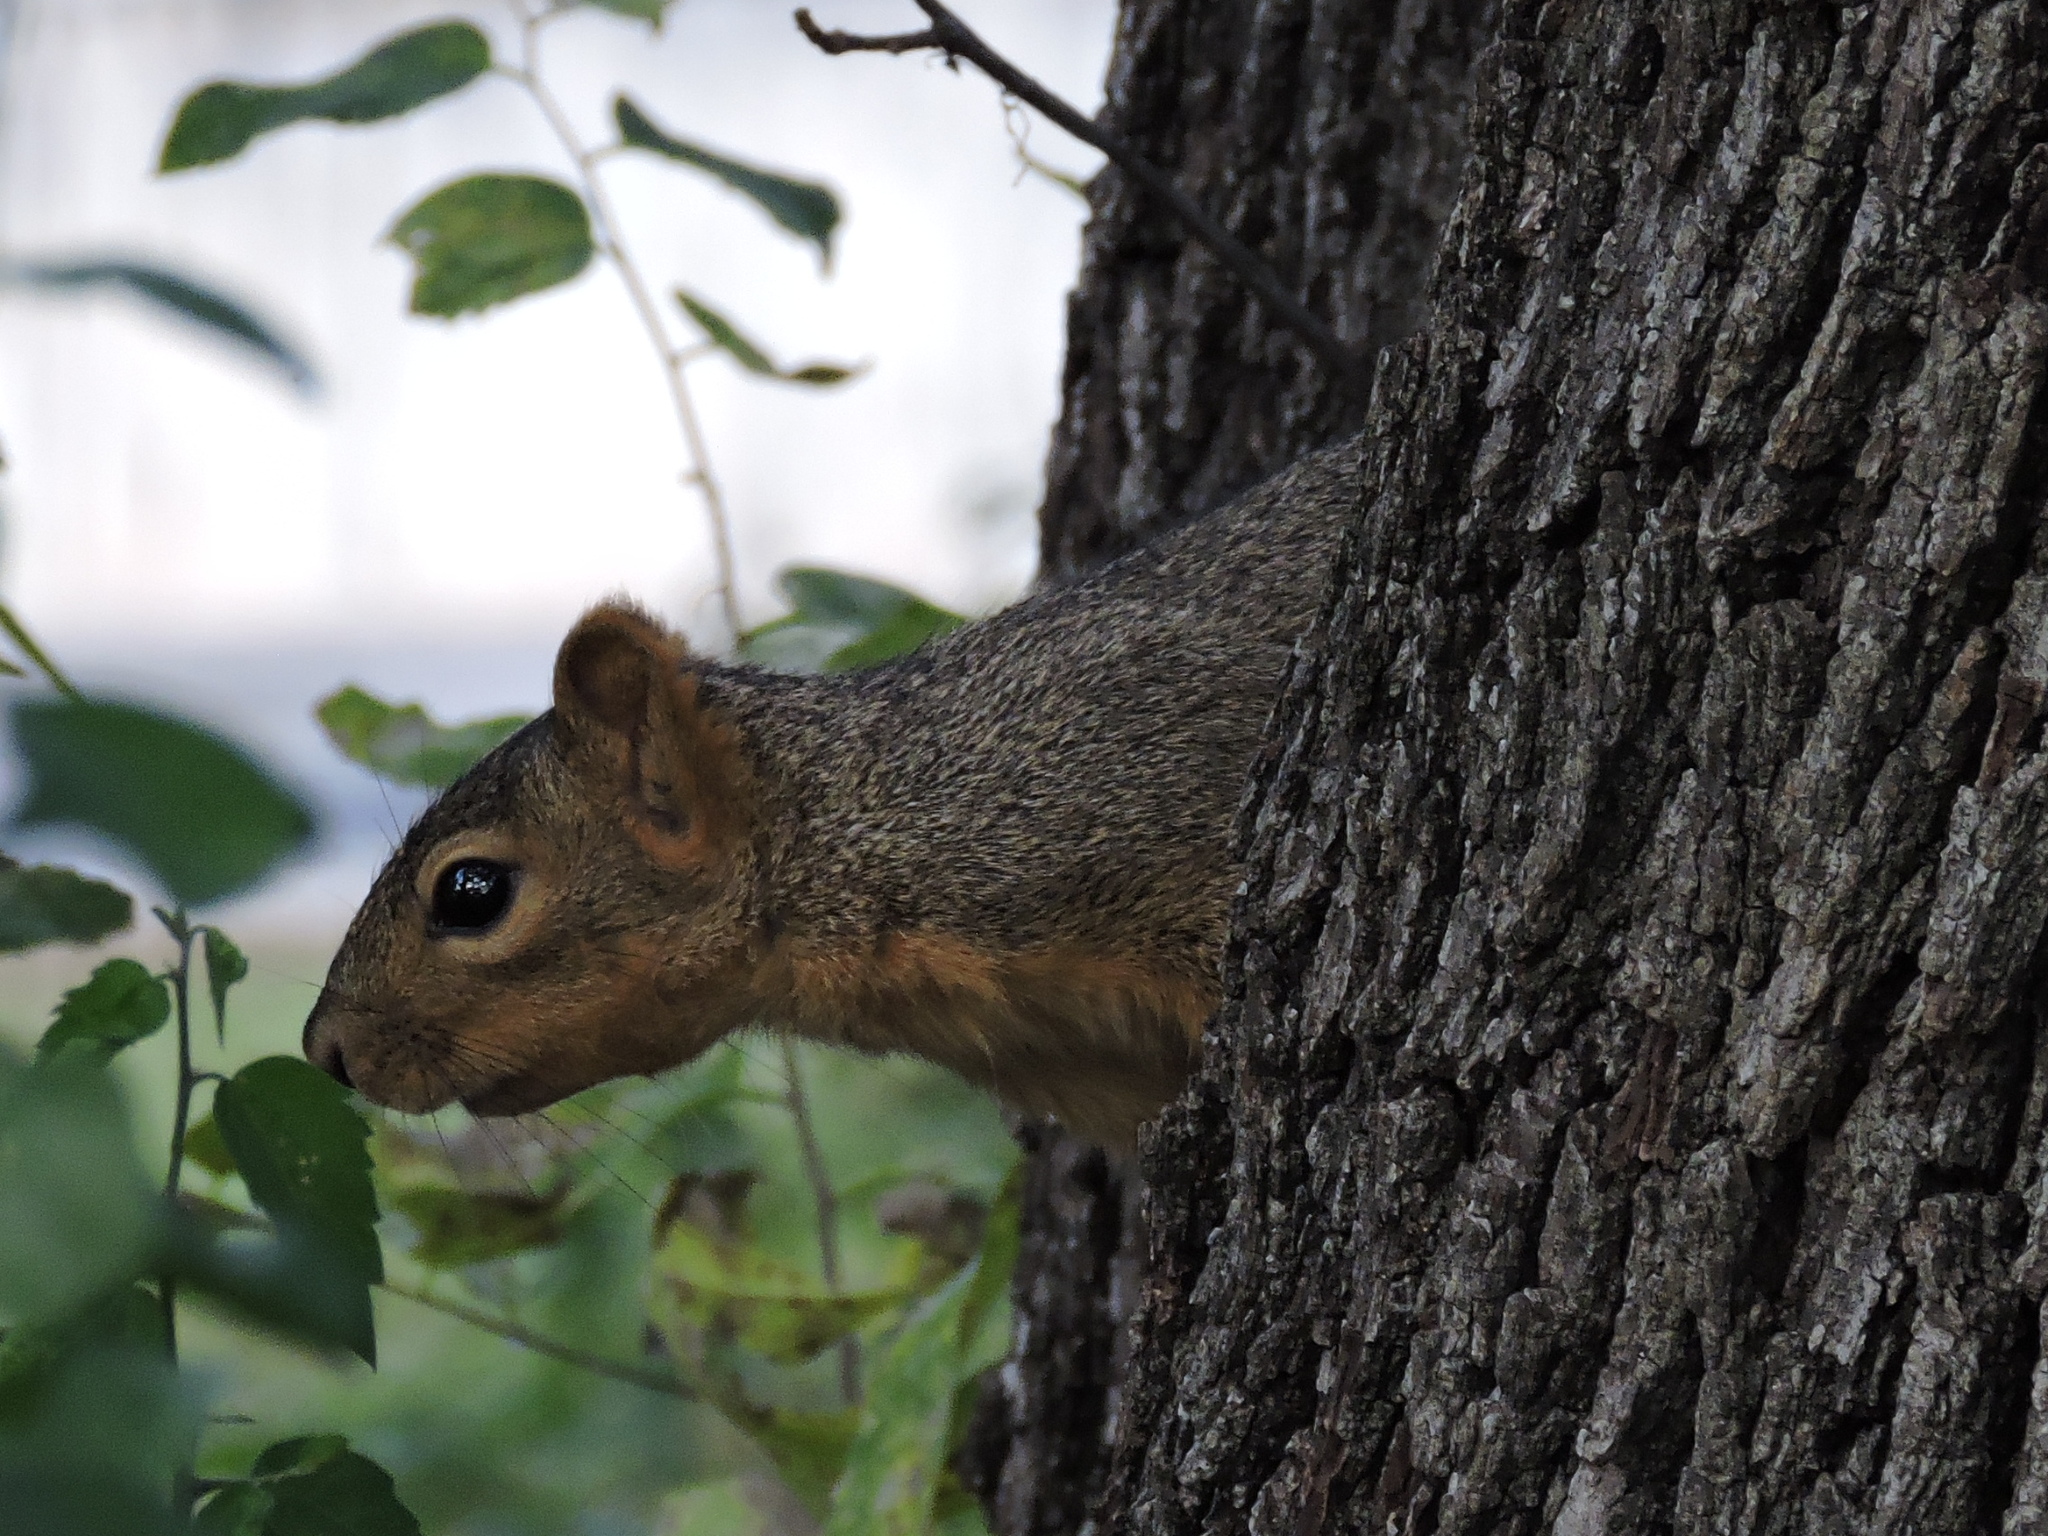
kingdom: Animalia
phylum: Chordata
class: Mammalia
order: Rodentia
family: Sciuridae
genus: Sciurus
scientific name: Sciurus niger
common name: Fox squirrel
